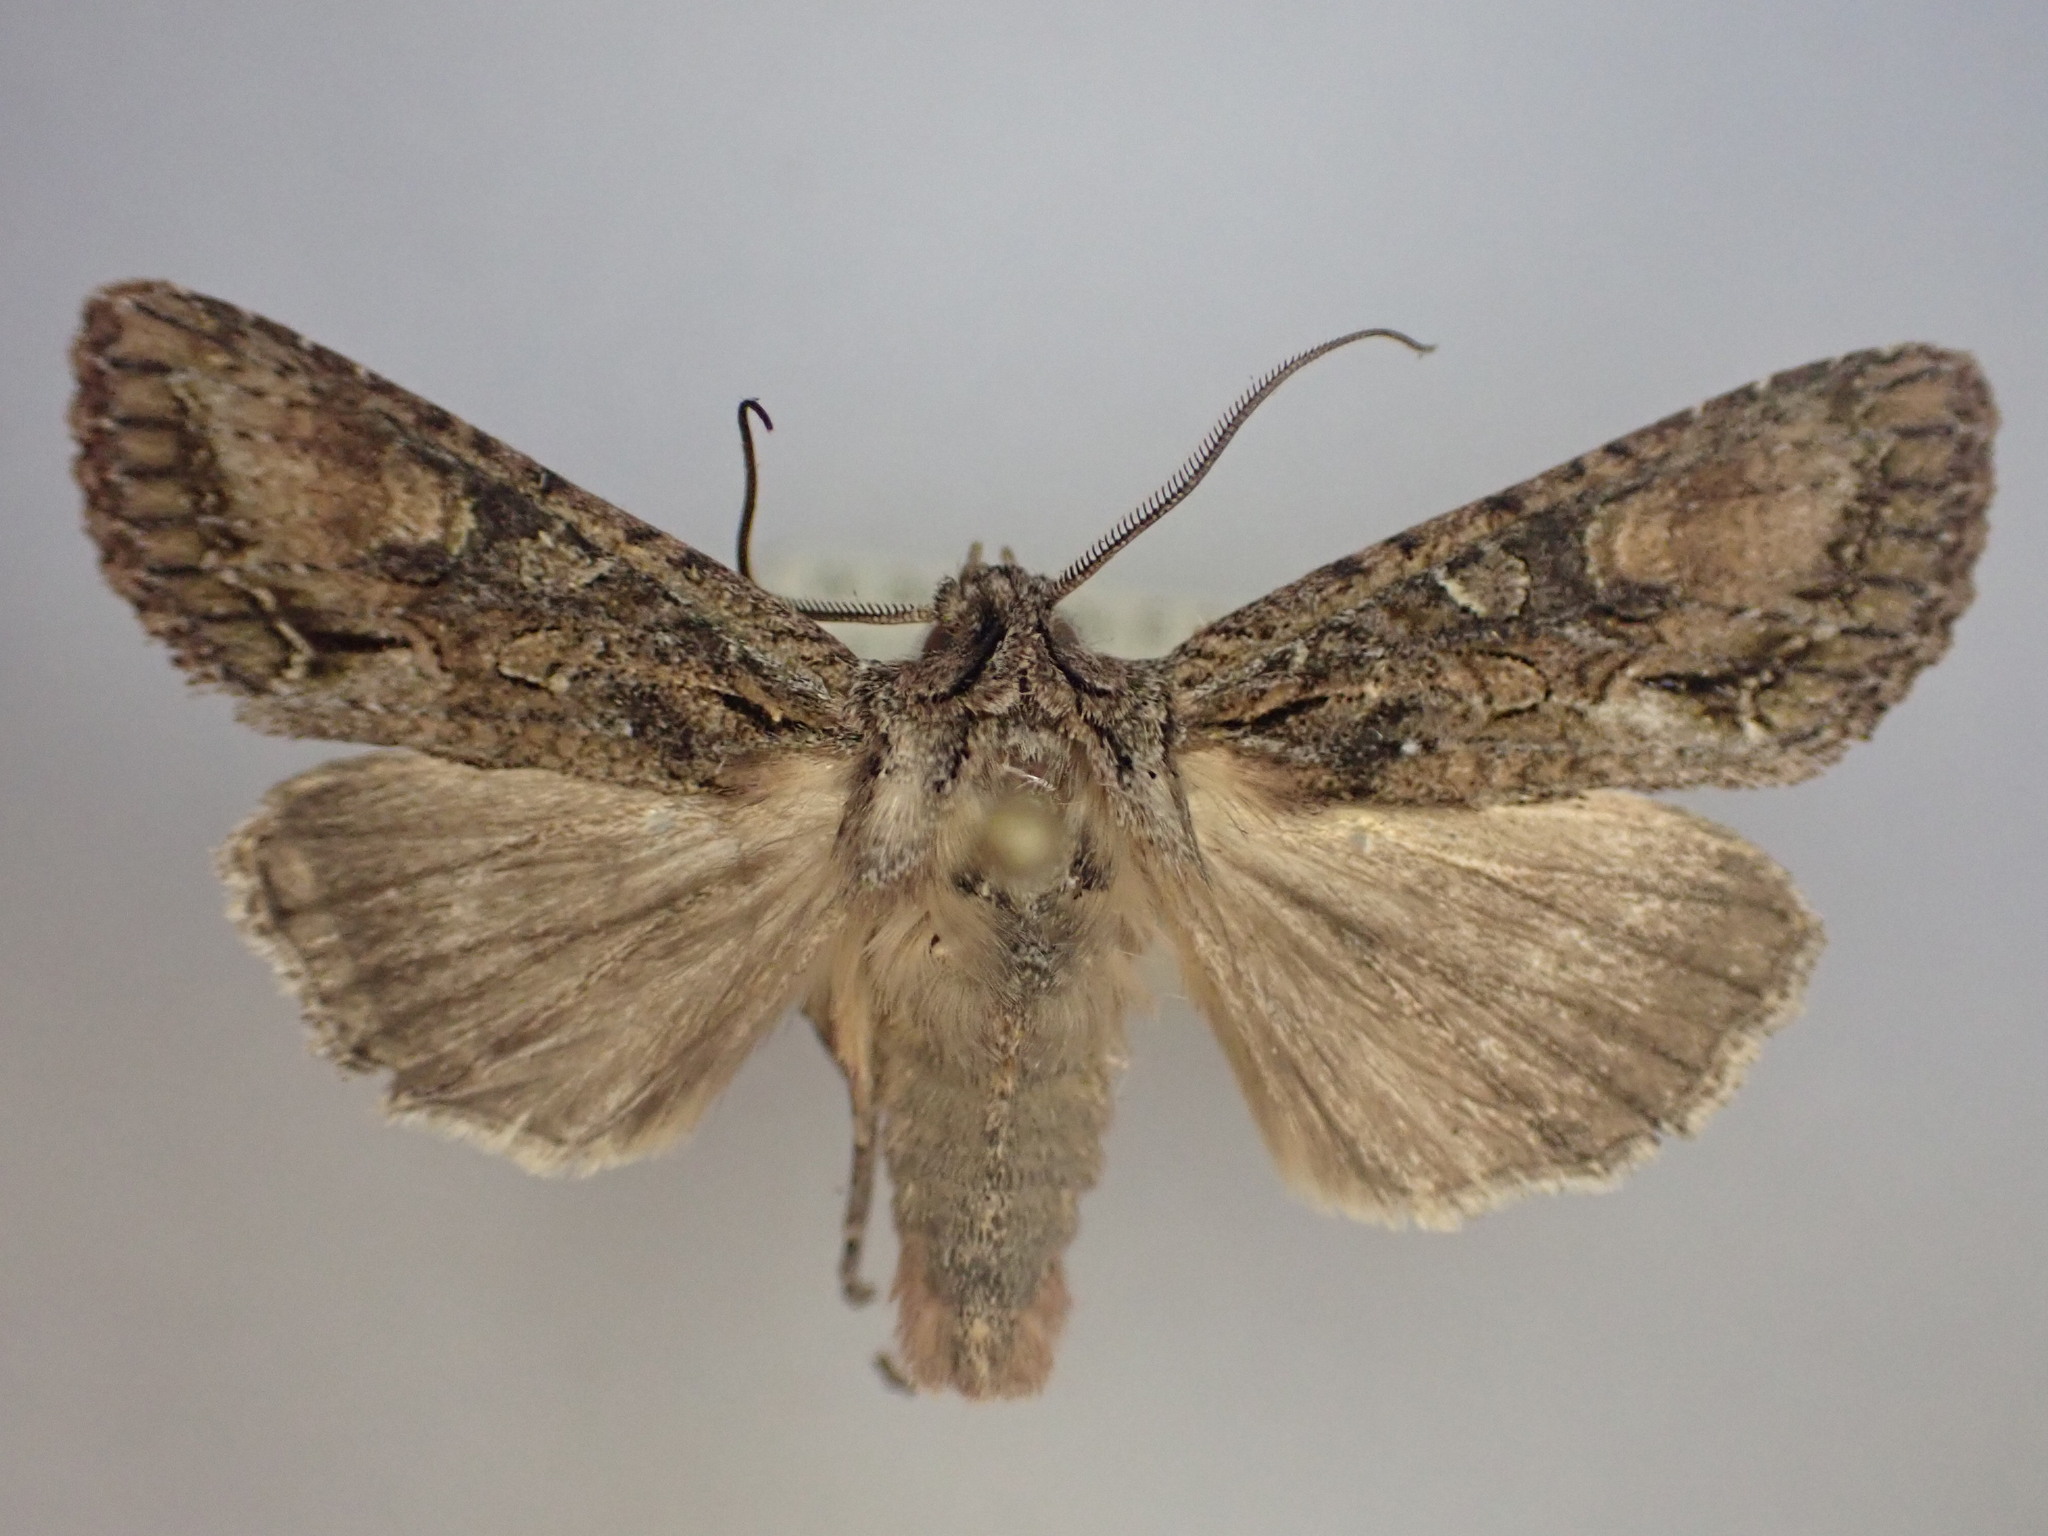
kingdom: Animalia
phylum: Arthropoda
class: Insecta
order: Lepidoptera
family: Noctuidae
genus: Ichneutica
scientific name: Ichneutica mutans
